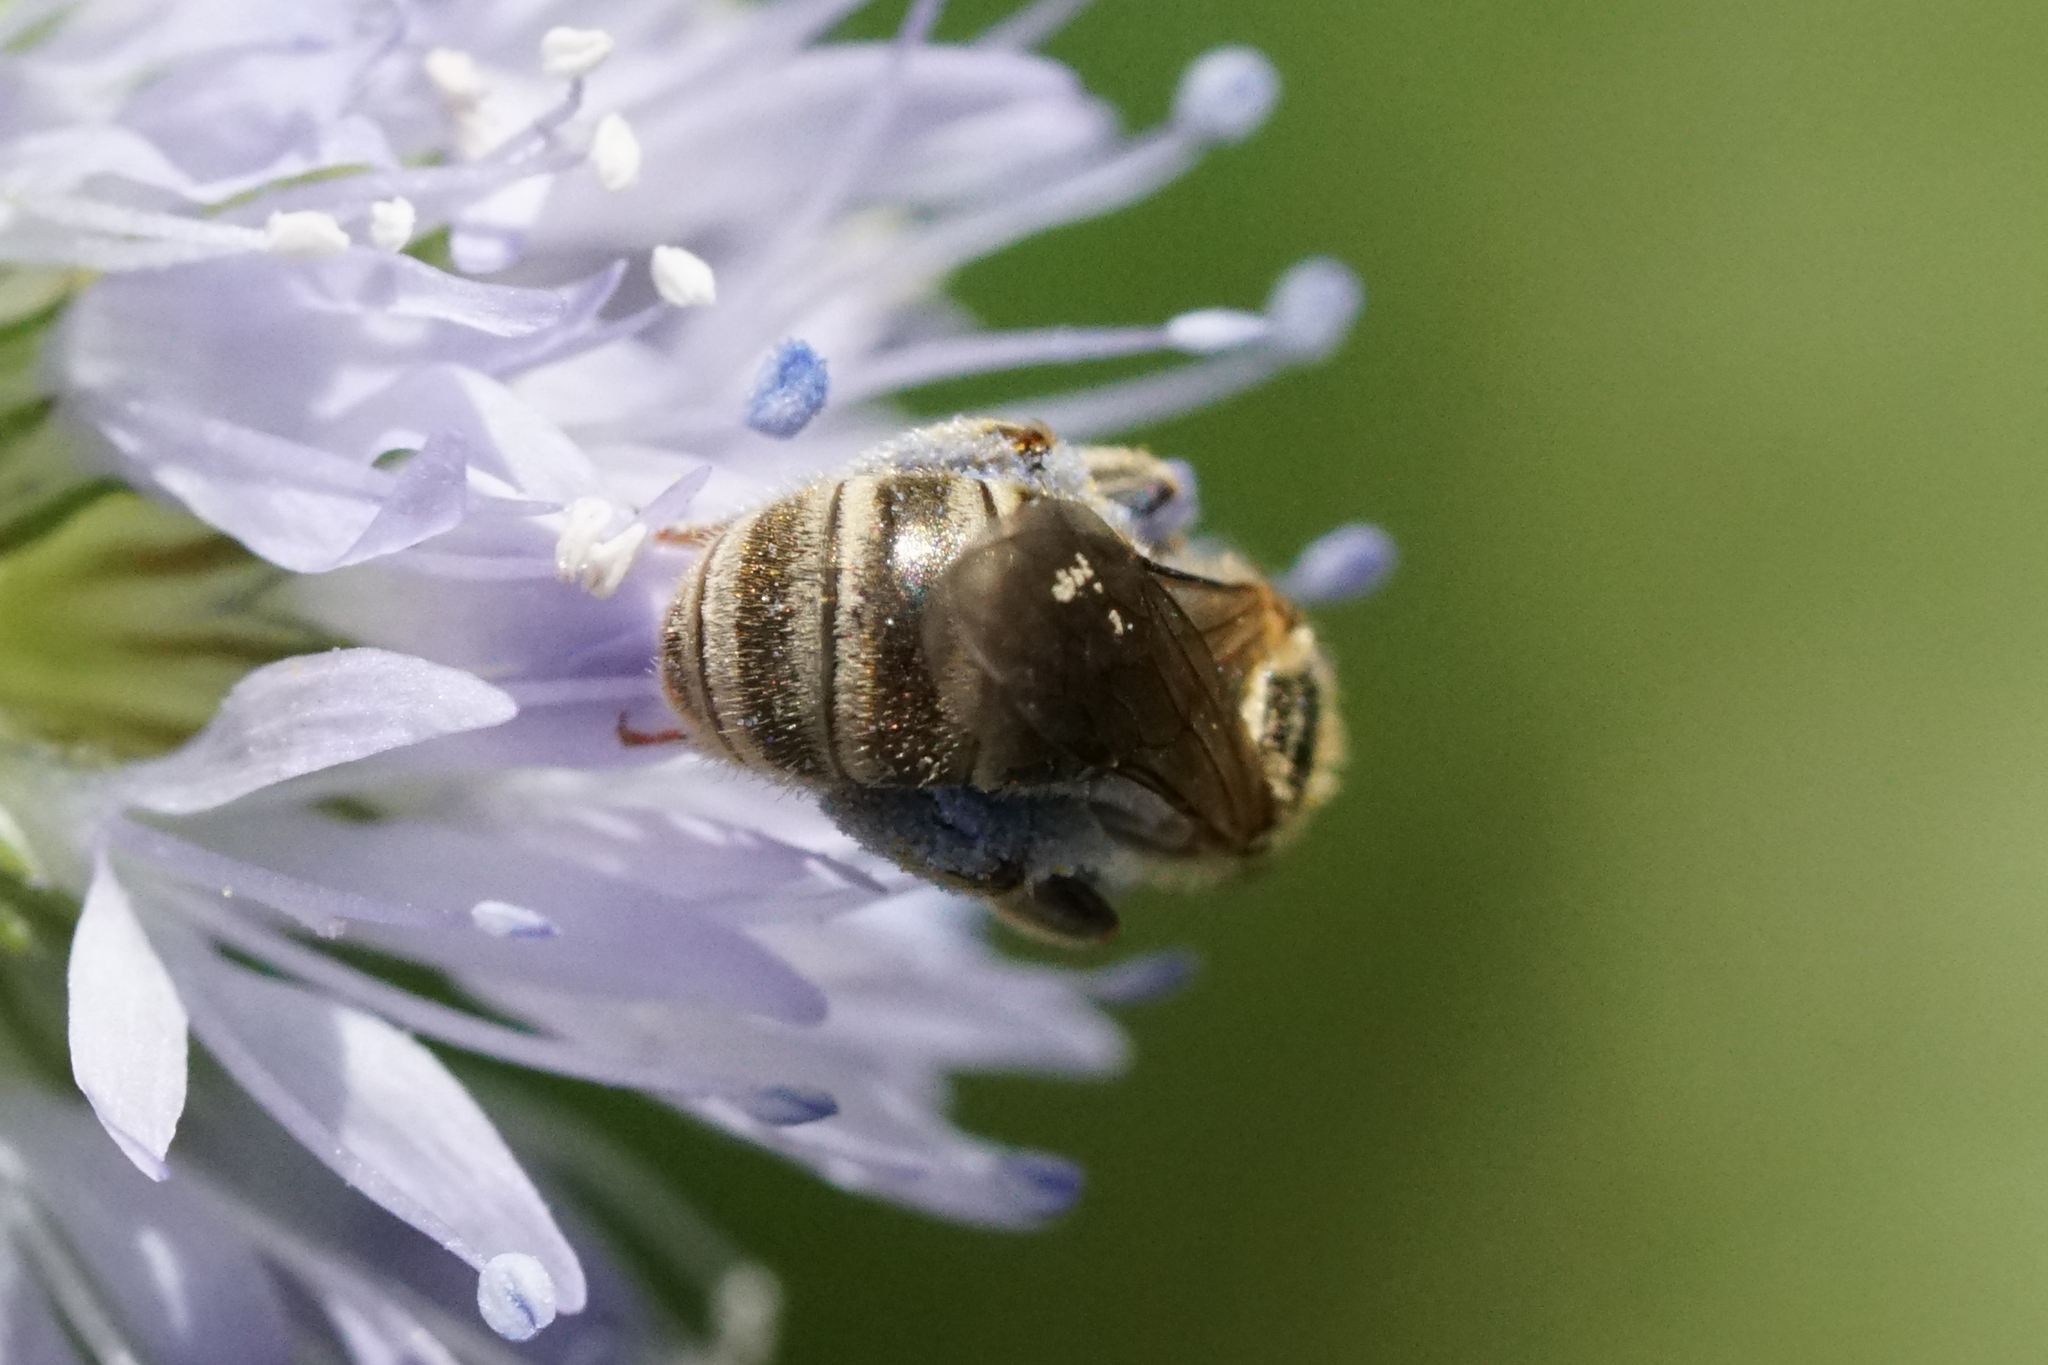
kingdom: Animalia
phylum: Arthropoda
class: Insecta
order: Hymenoptera
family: Halictidae
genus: Halictus
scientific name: Halictus confusus
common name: Southern bronze furrow bee
